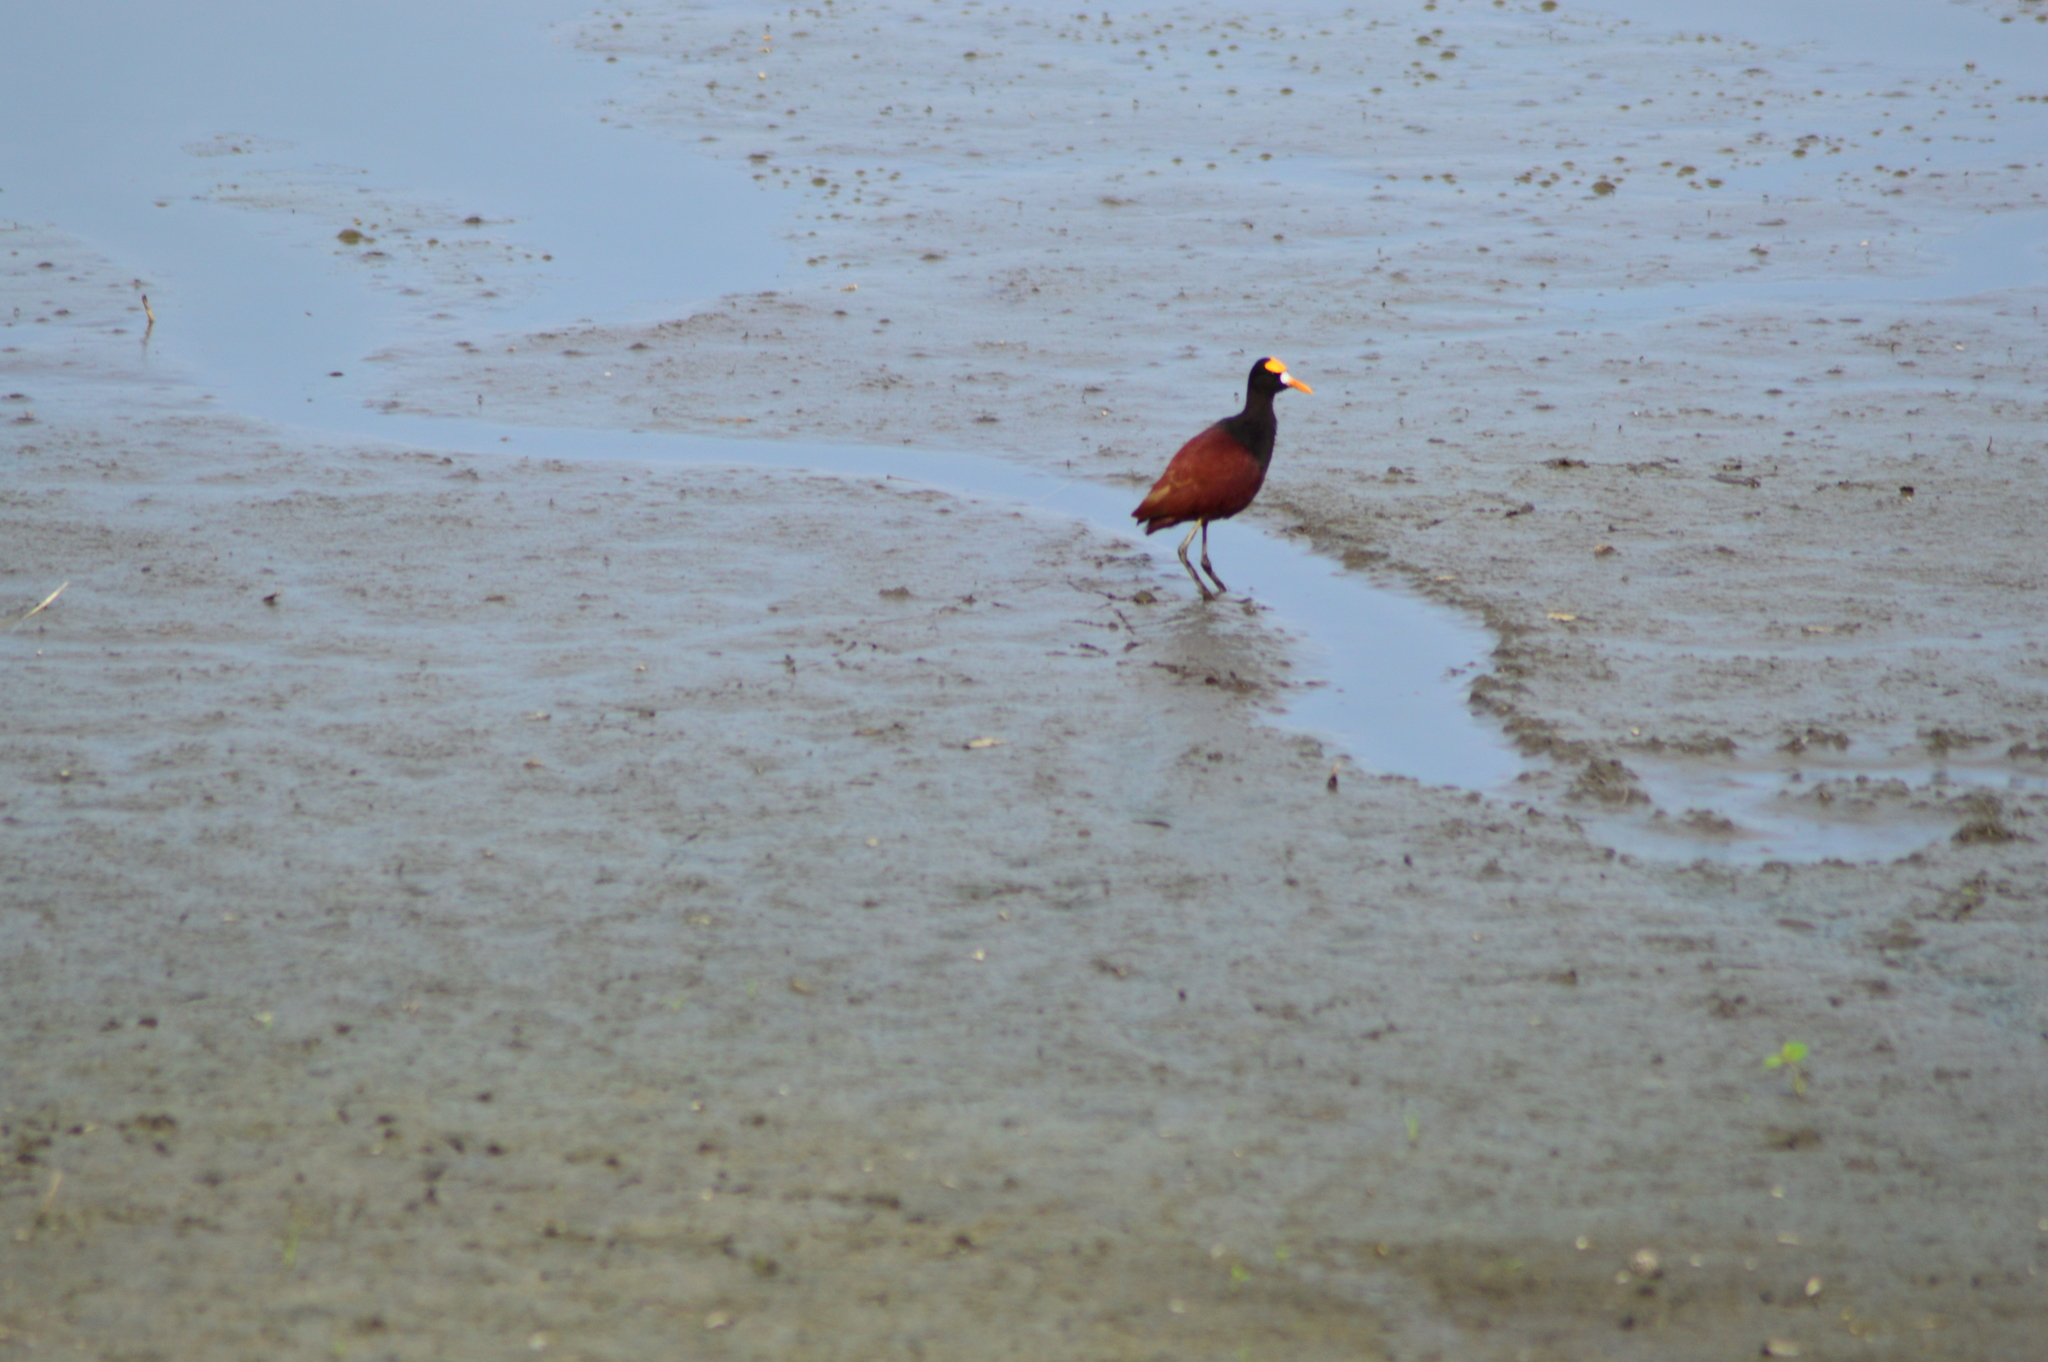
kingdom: Animalia
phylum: Chordata
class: Aves
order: Charadriiformes
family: Jacanidae
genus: Jacana
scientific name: Jacana spinosa
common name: Northern jacana
